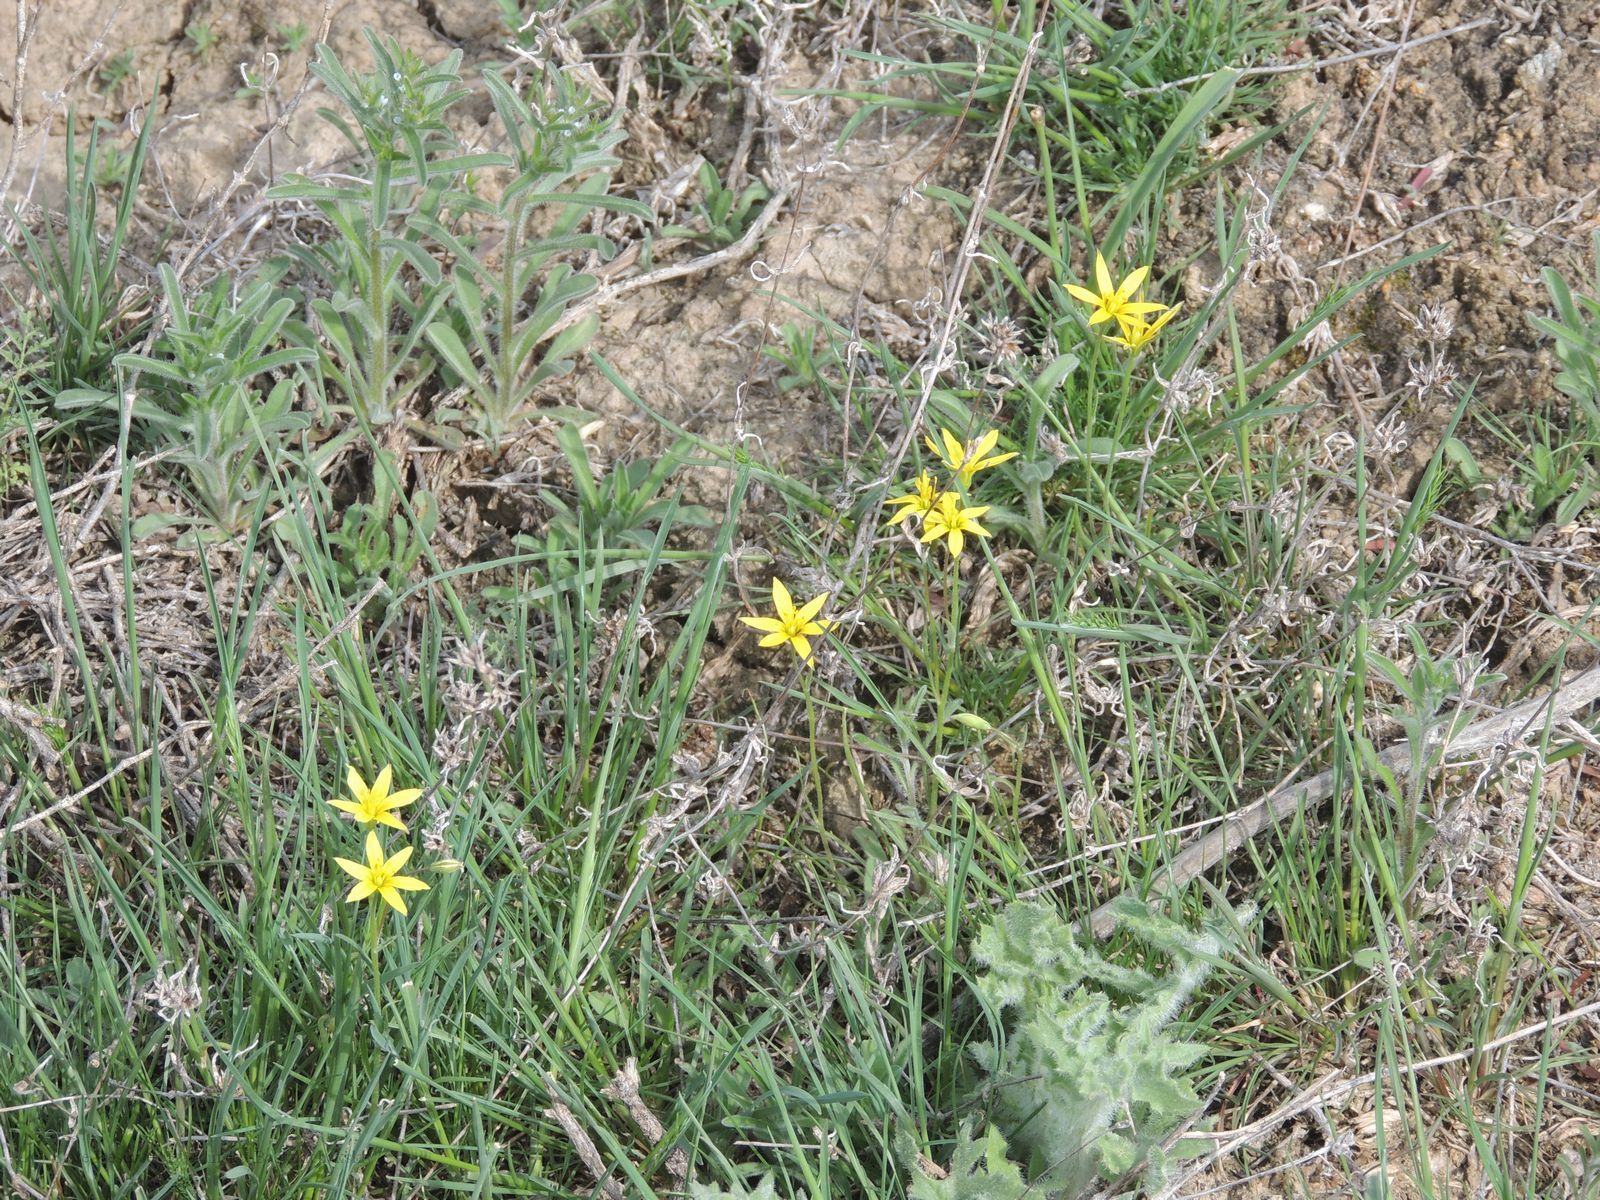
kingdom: Plantae
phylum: Tracheophyta
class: Liliopsida
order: Liliales
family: Liliaceae
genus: Gagea
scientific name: Gagea bulbifera
